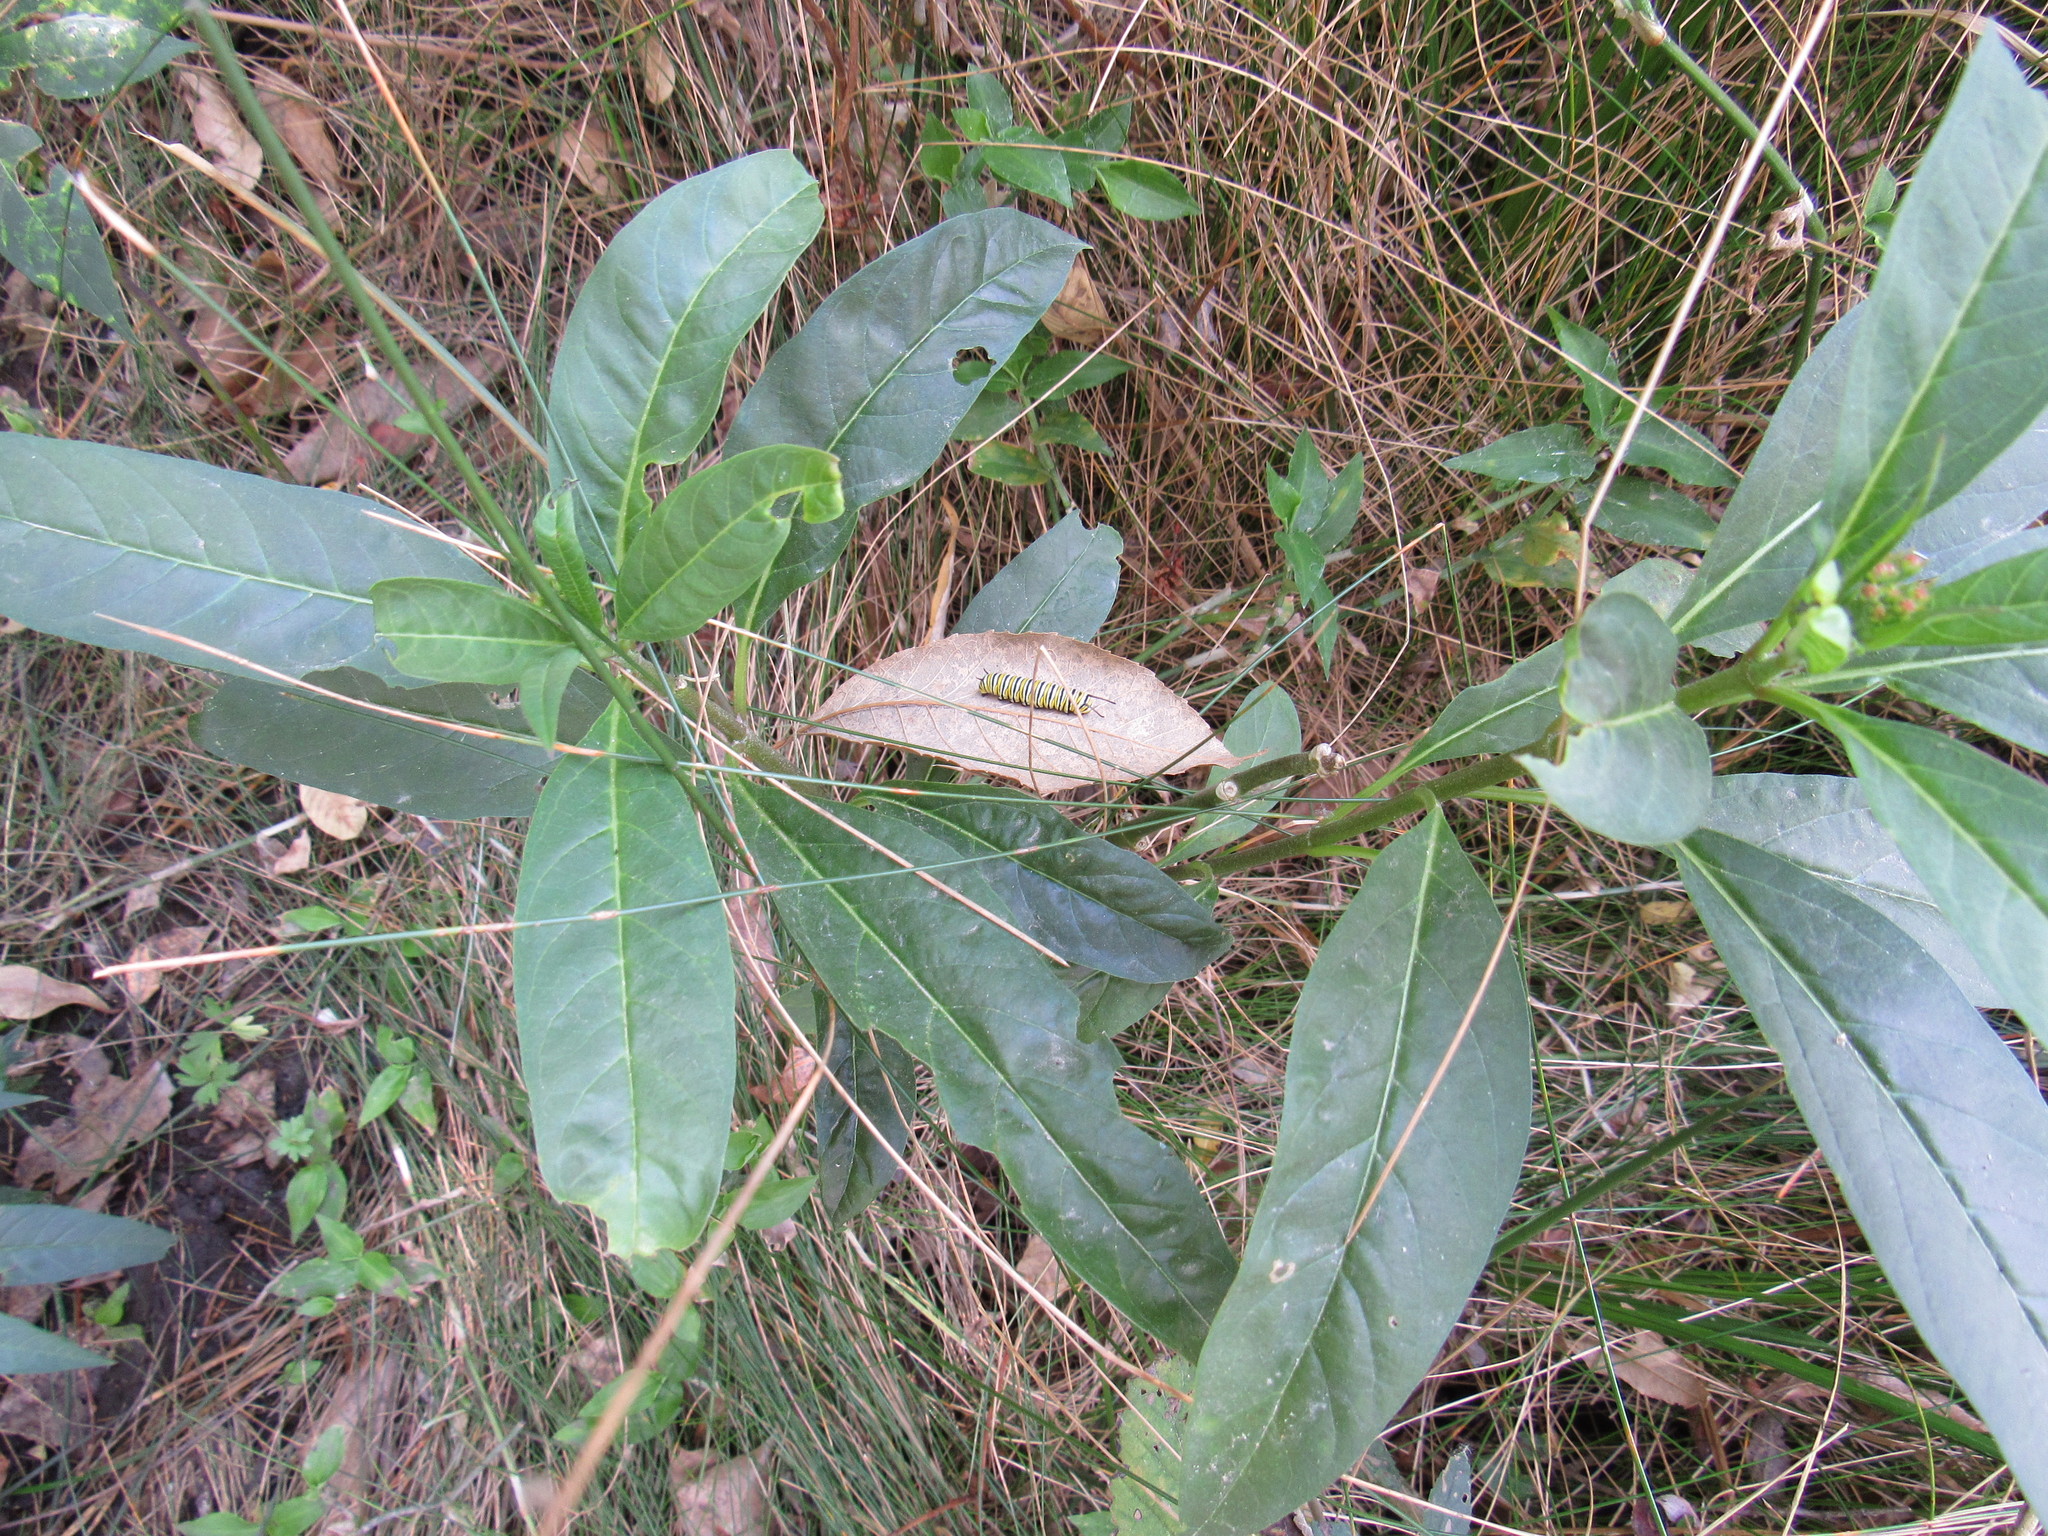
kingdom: Animalia
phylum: Arthropoda
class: Insecta
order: Lepidoptera
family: Nymphalidae
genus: Danaus
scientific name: Danaus plexippus
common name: Monarch
